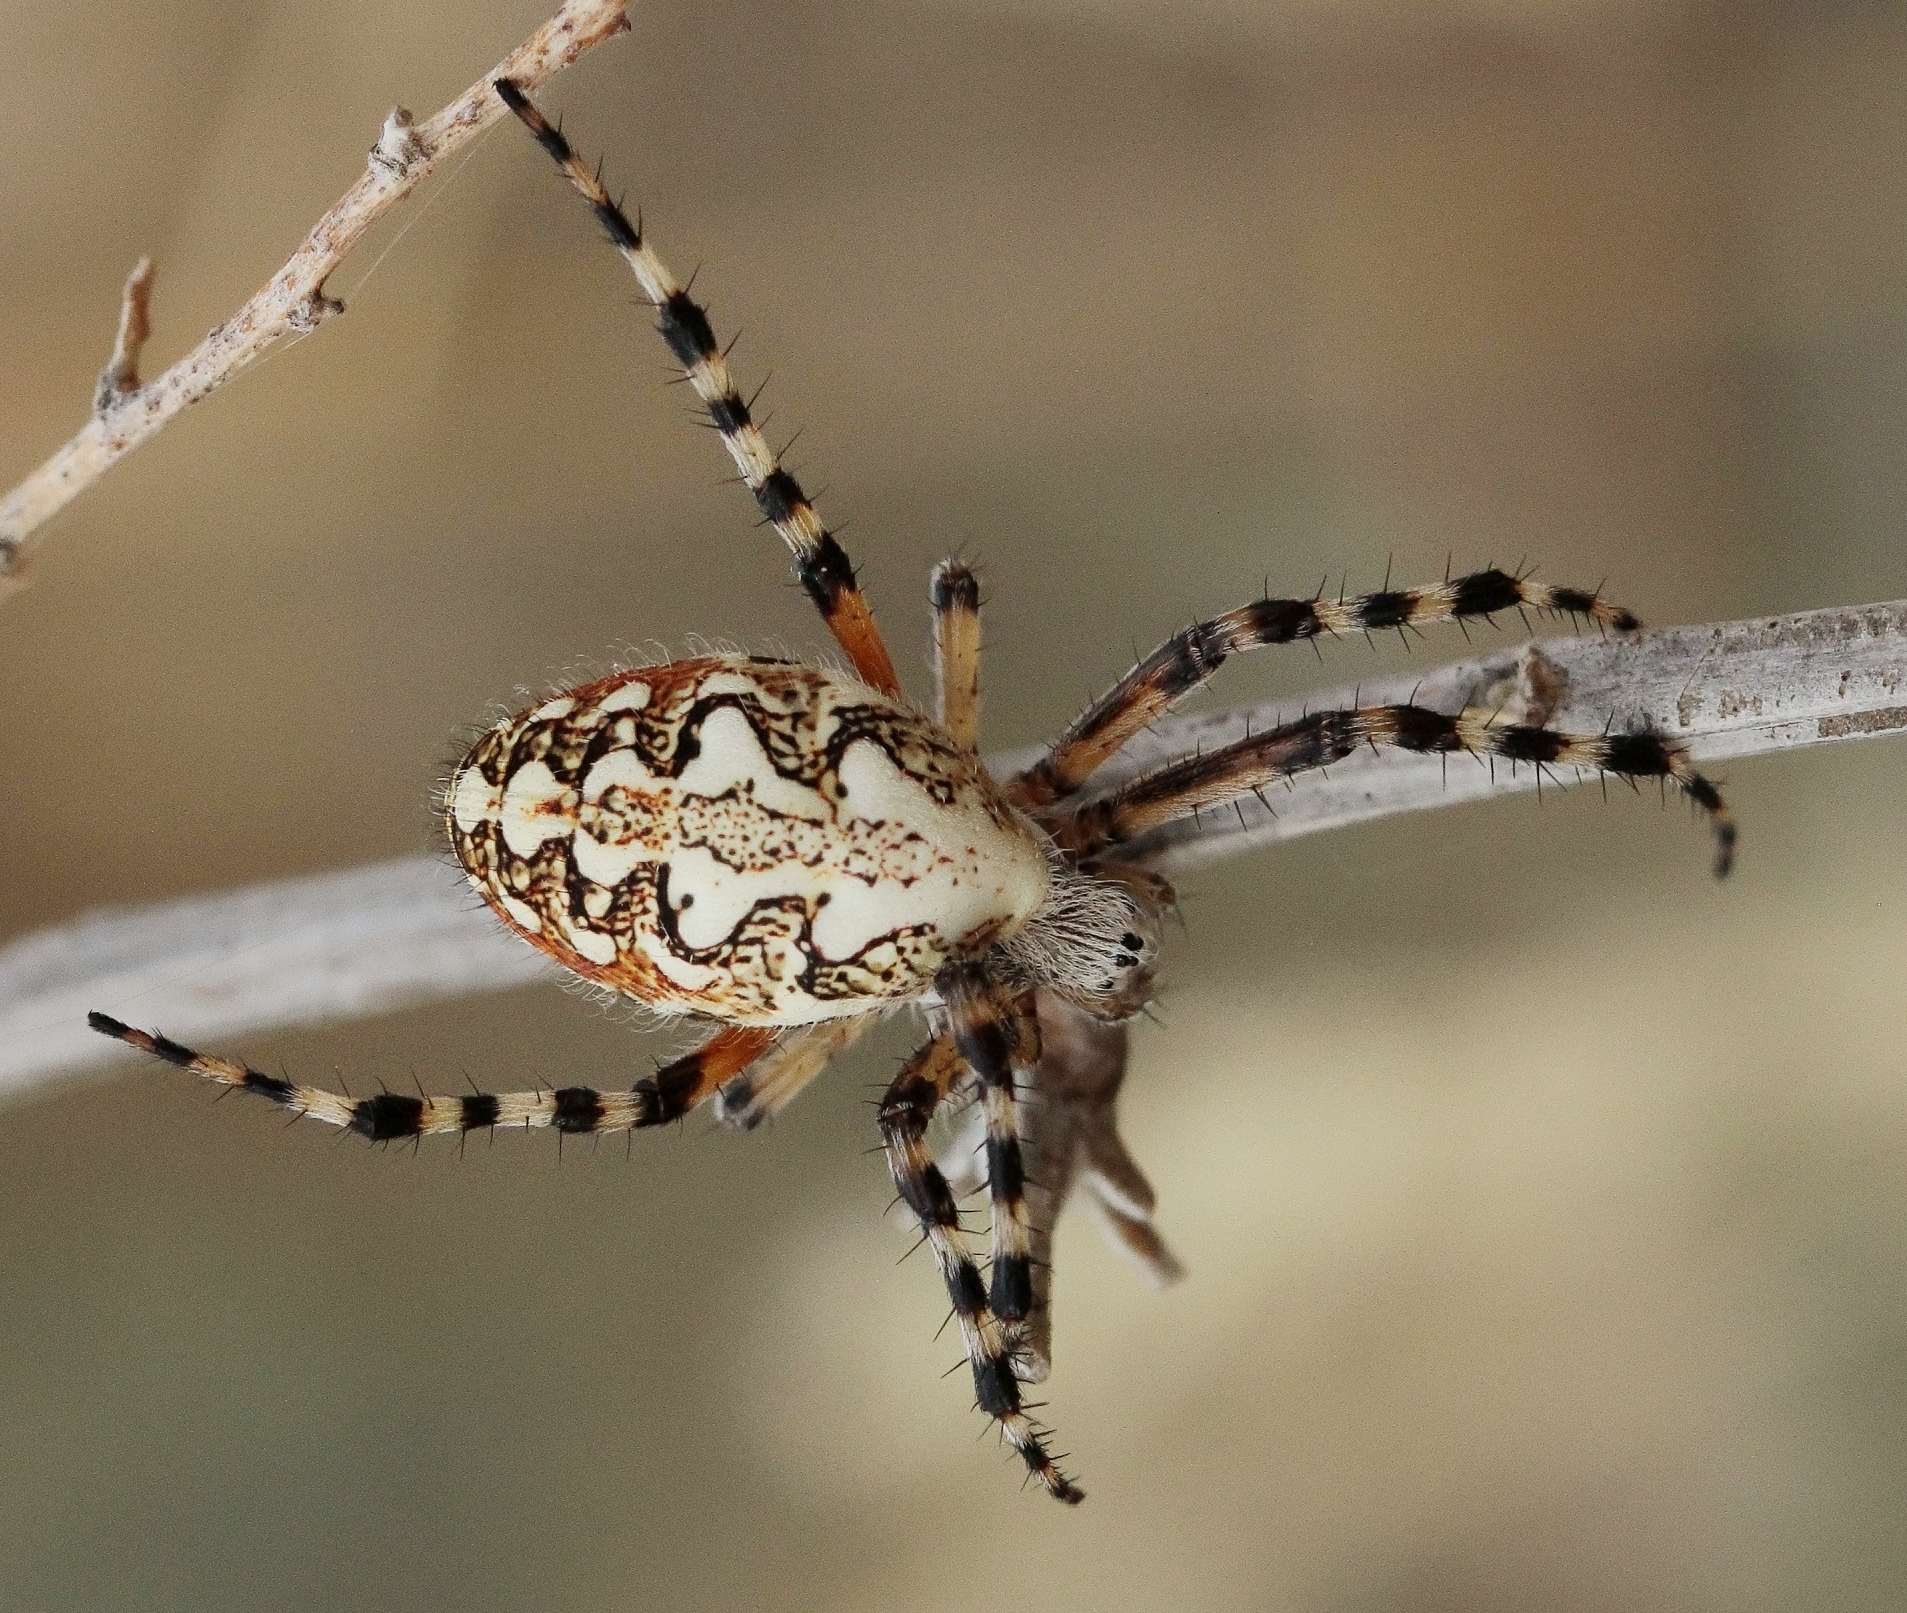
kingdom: Animalia
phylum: Arthropoda
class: Arachnida
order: Araneae
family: Araneidae
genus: Aculepeira
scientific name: Aculepeira armida
